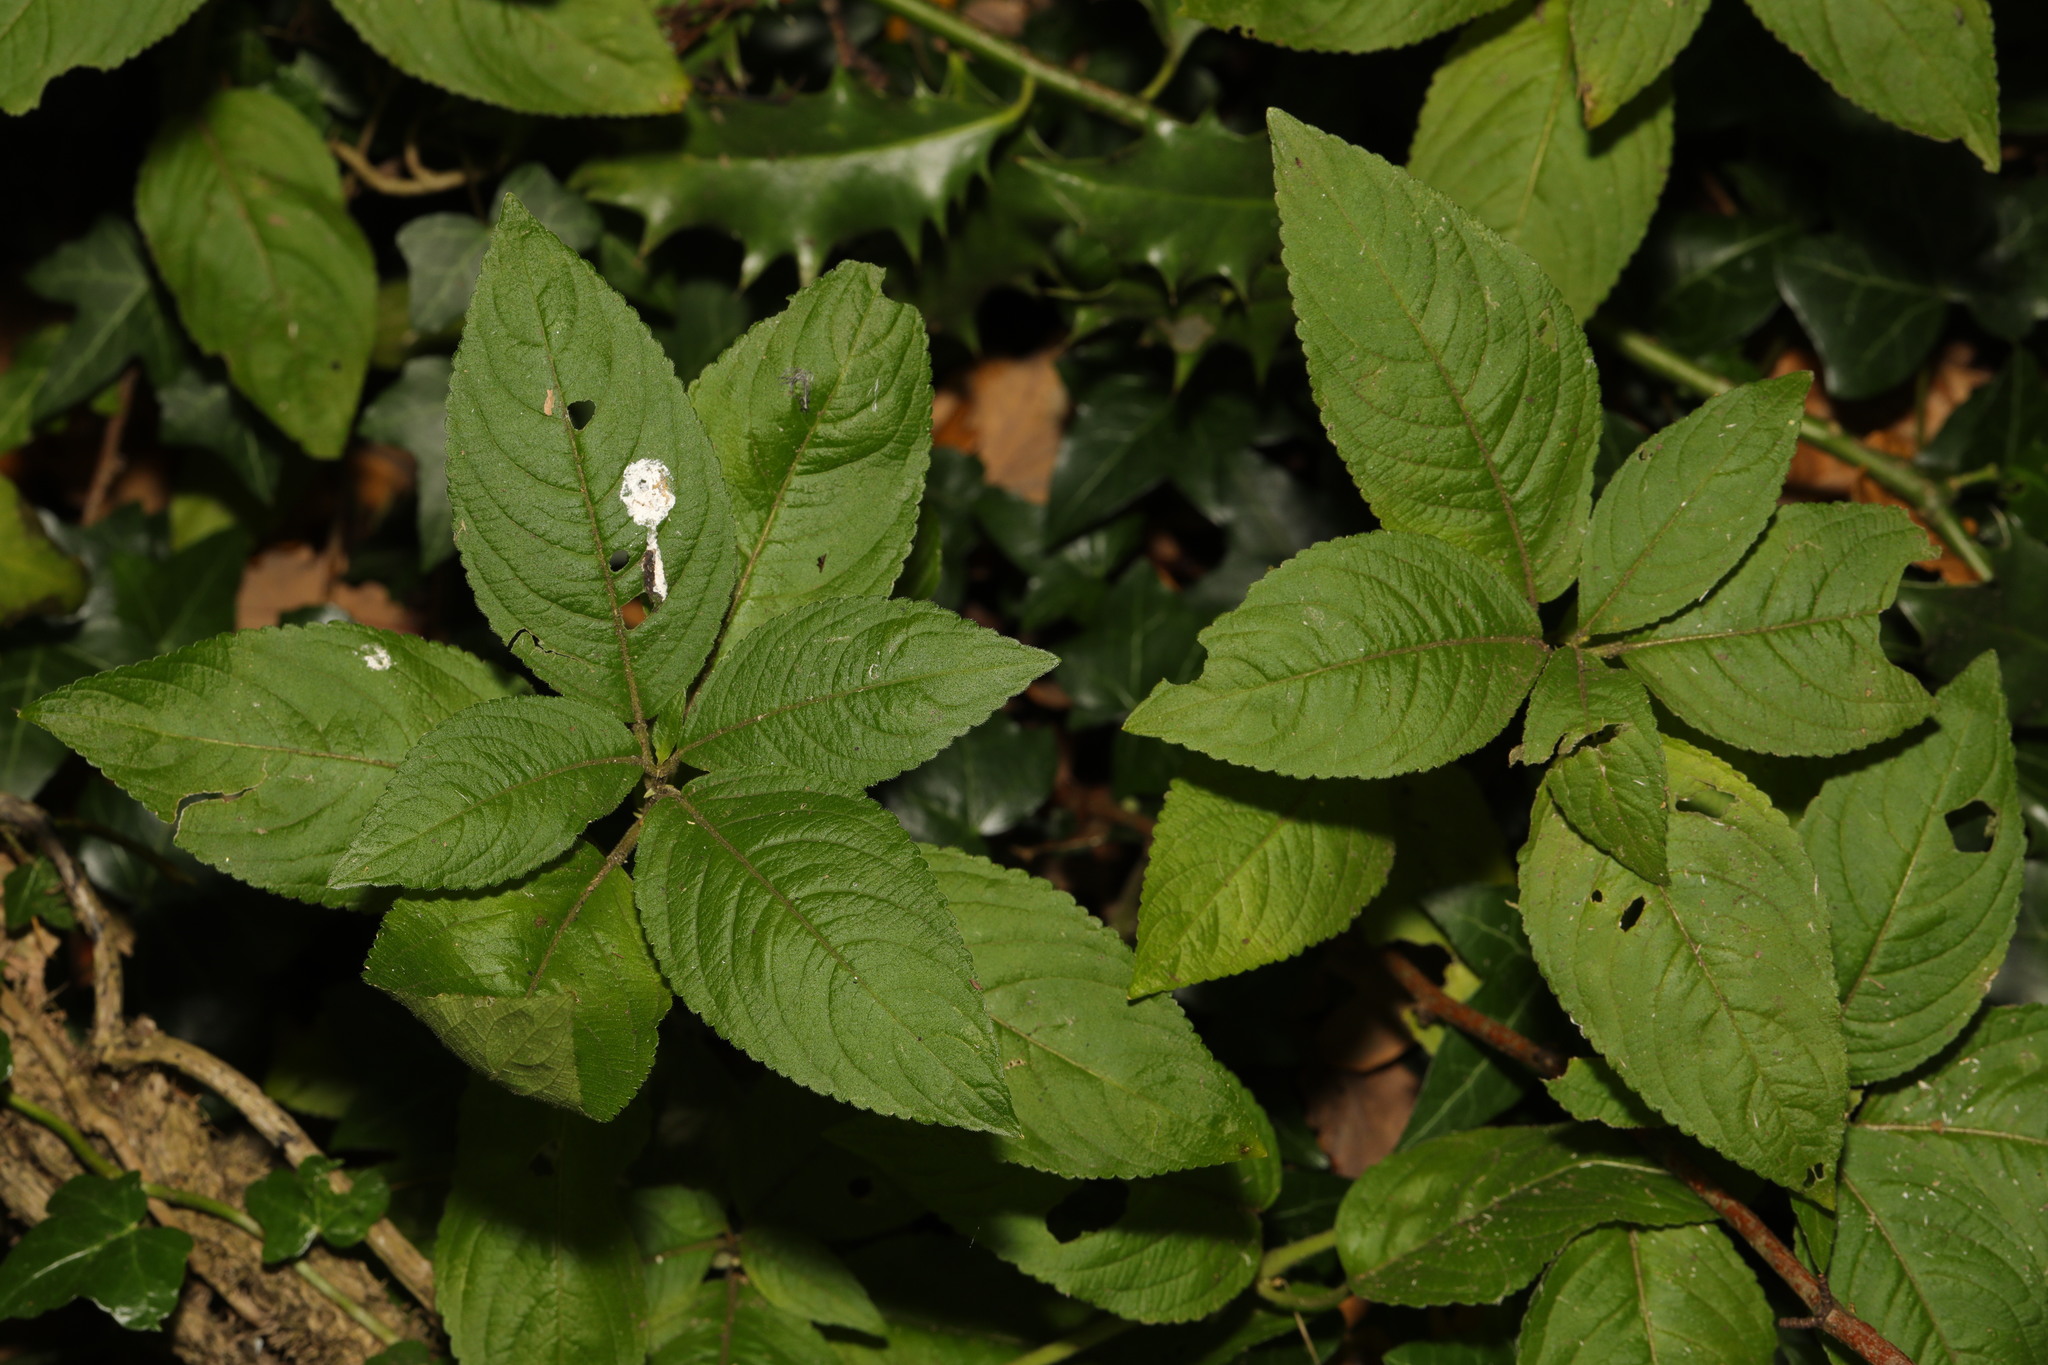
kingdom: Plantae
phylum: Tracheophyta
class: Magnoliopsida
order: Malpighiales
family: Euphorbiaceae
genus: Mercurialis
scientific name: Mercurialis perennis
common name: Dog mercury
